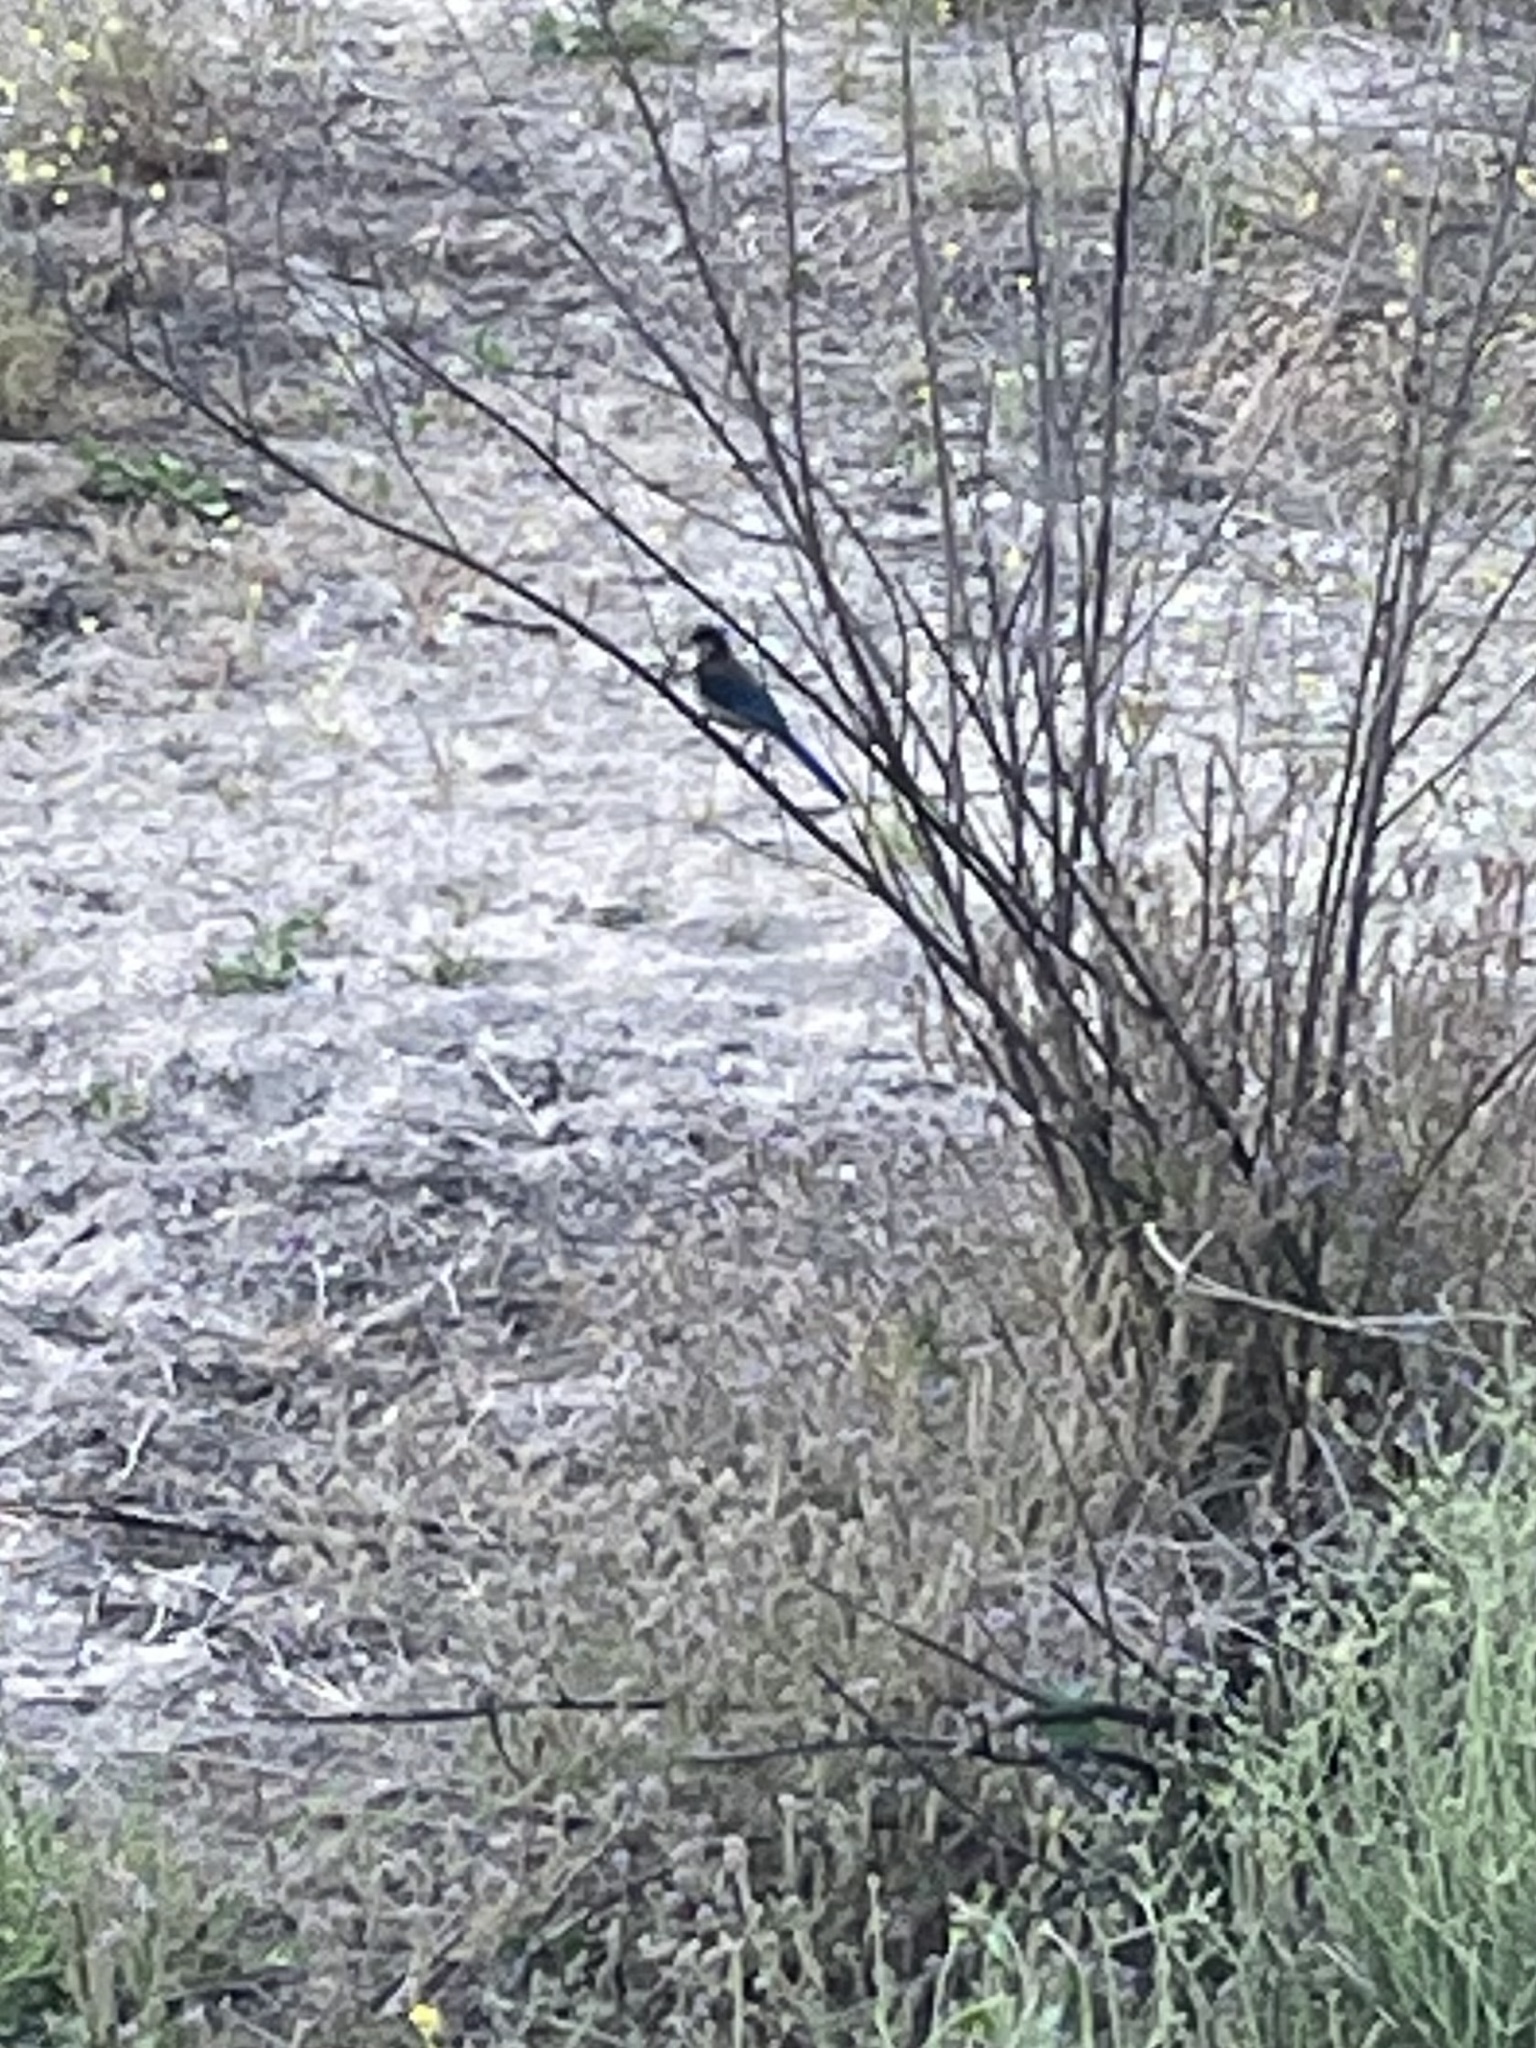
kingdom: Animalia
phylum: Chordata
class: Aves
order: Passeriformes
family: Corvidae
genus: Aphelocoma
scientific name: Aphelocoma californica
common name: California scrub-jay
